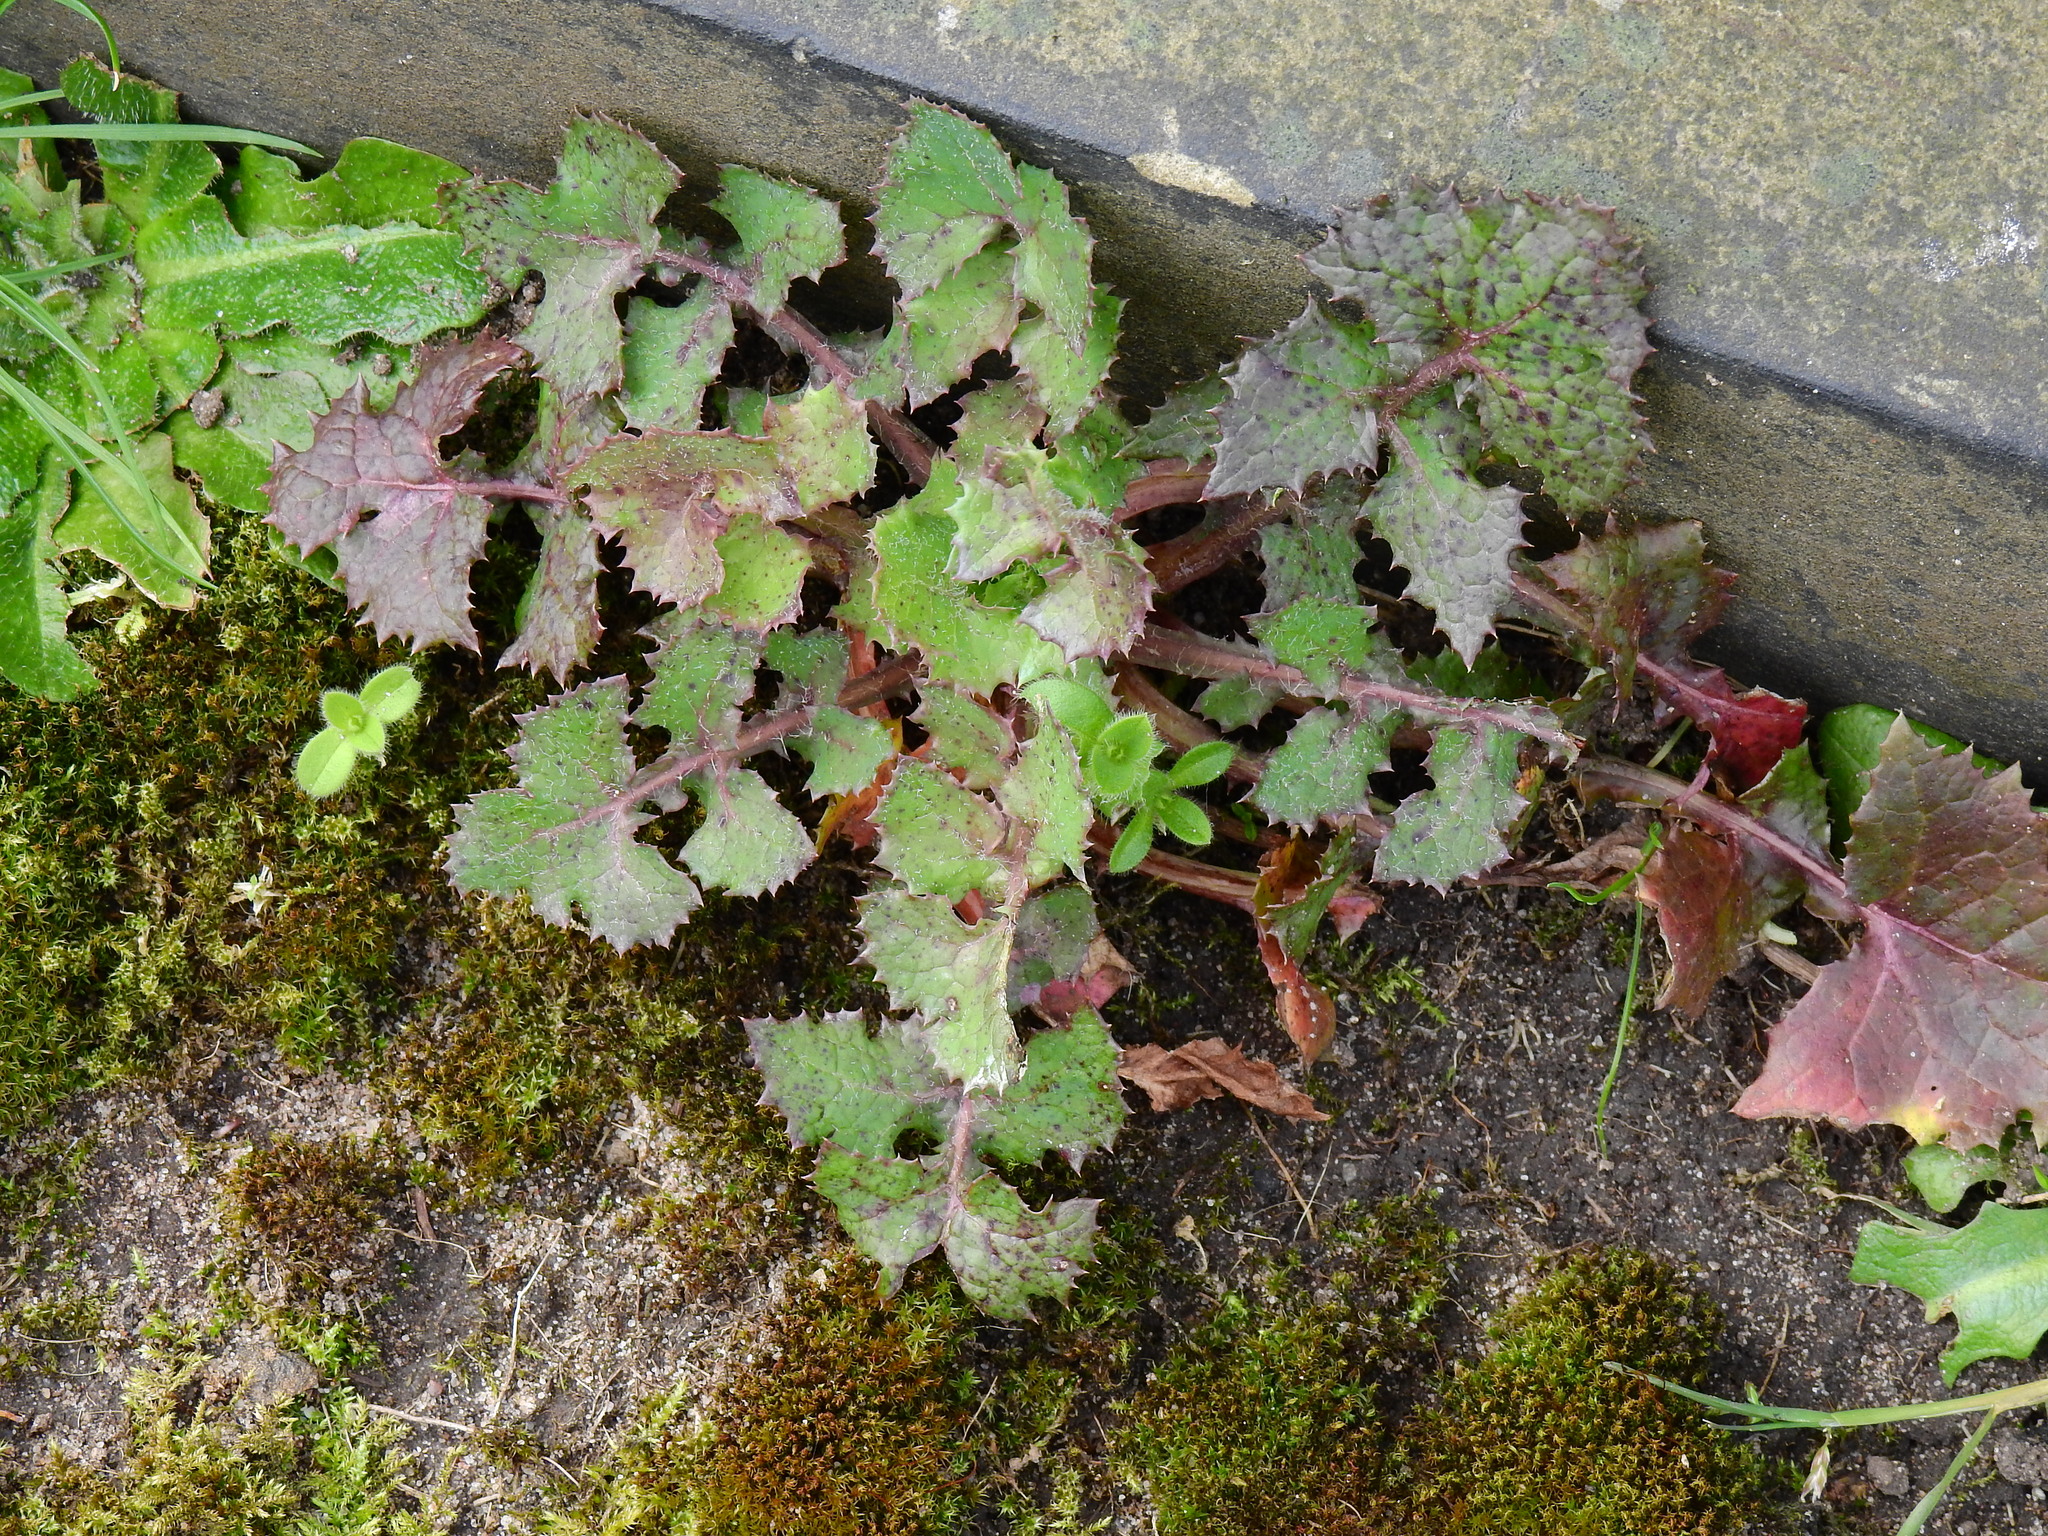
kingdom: Plantae
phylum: Tracheophyta
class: Magnoliopsida
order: Asterales
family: Asteraceae
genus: Sonchus
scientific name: Sonchus oleraceus
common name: Common sowthistle
